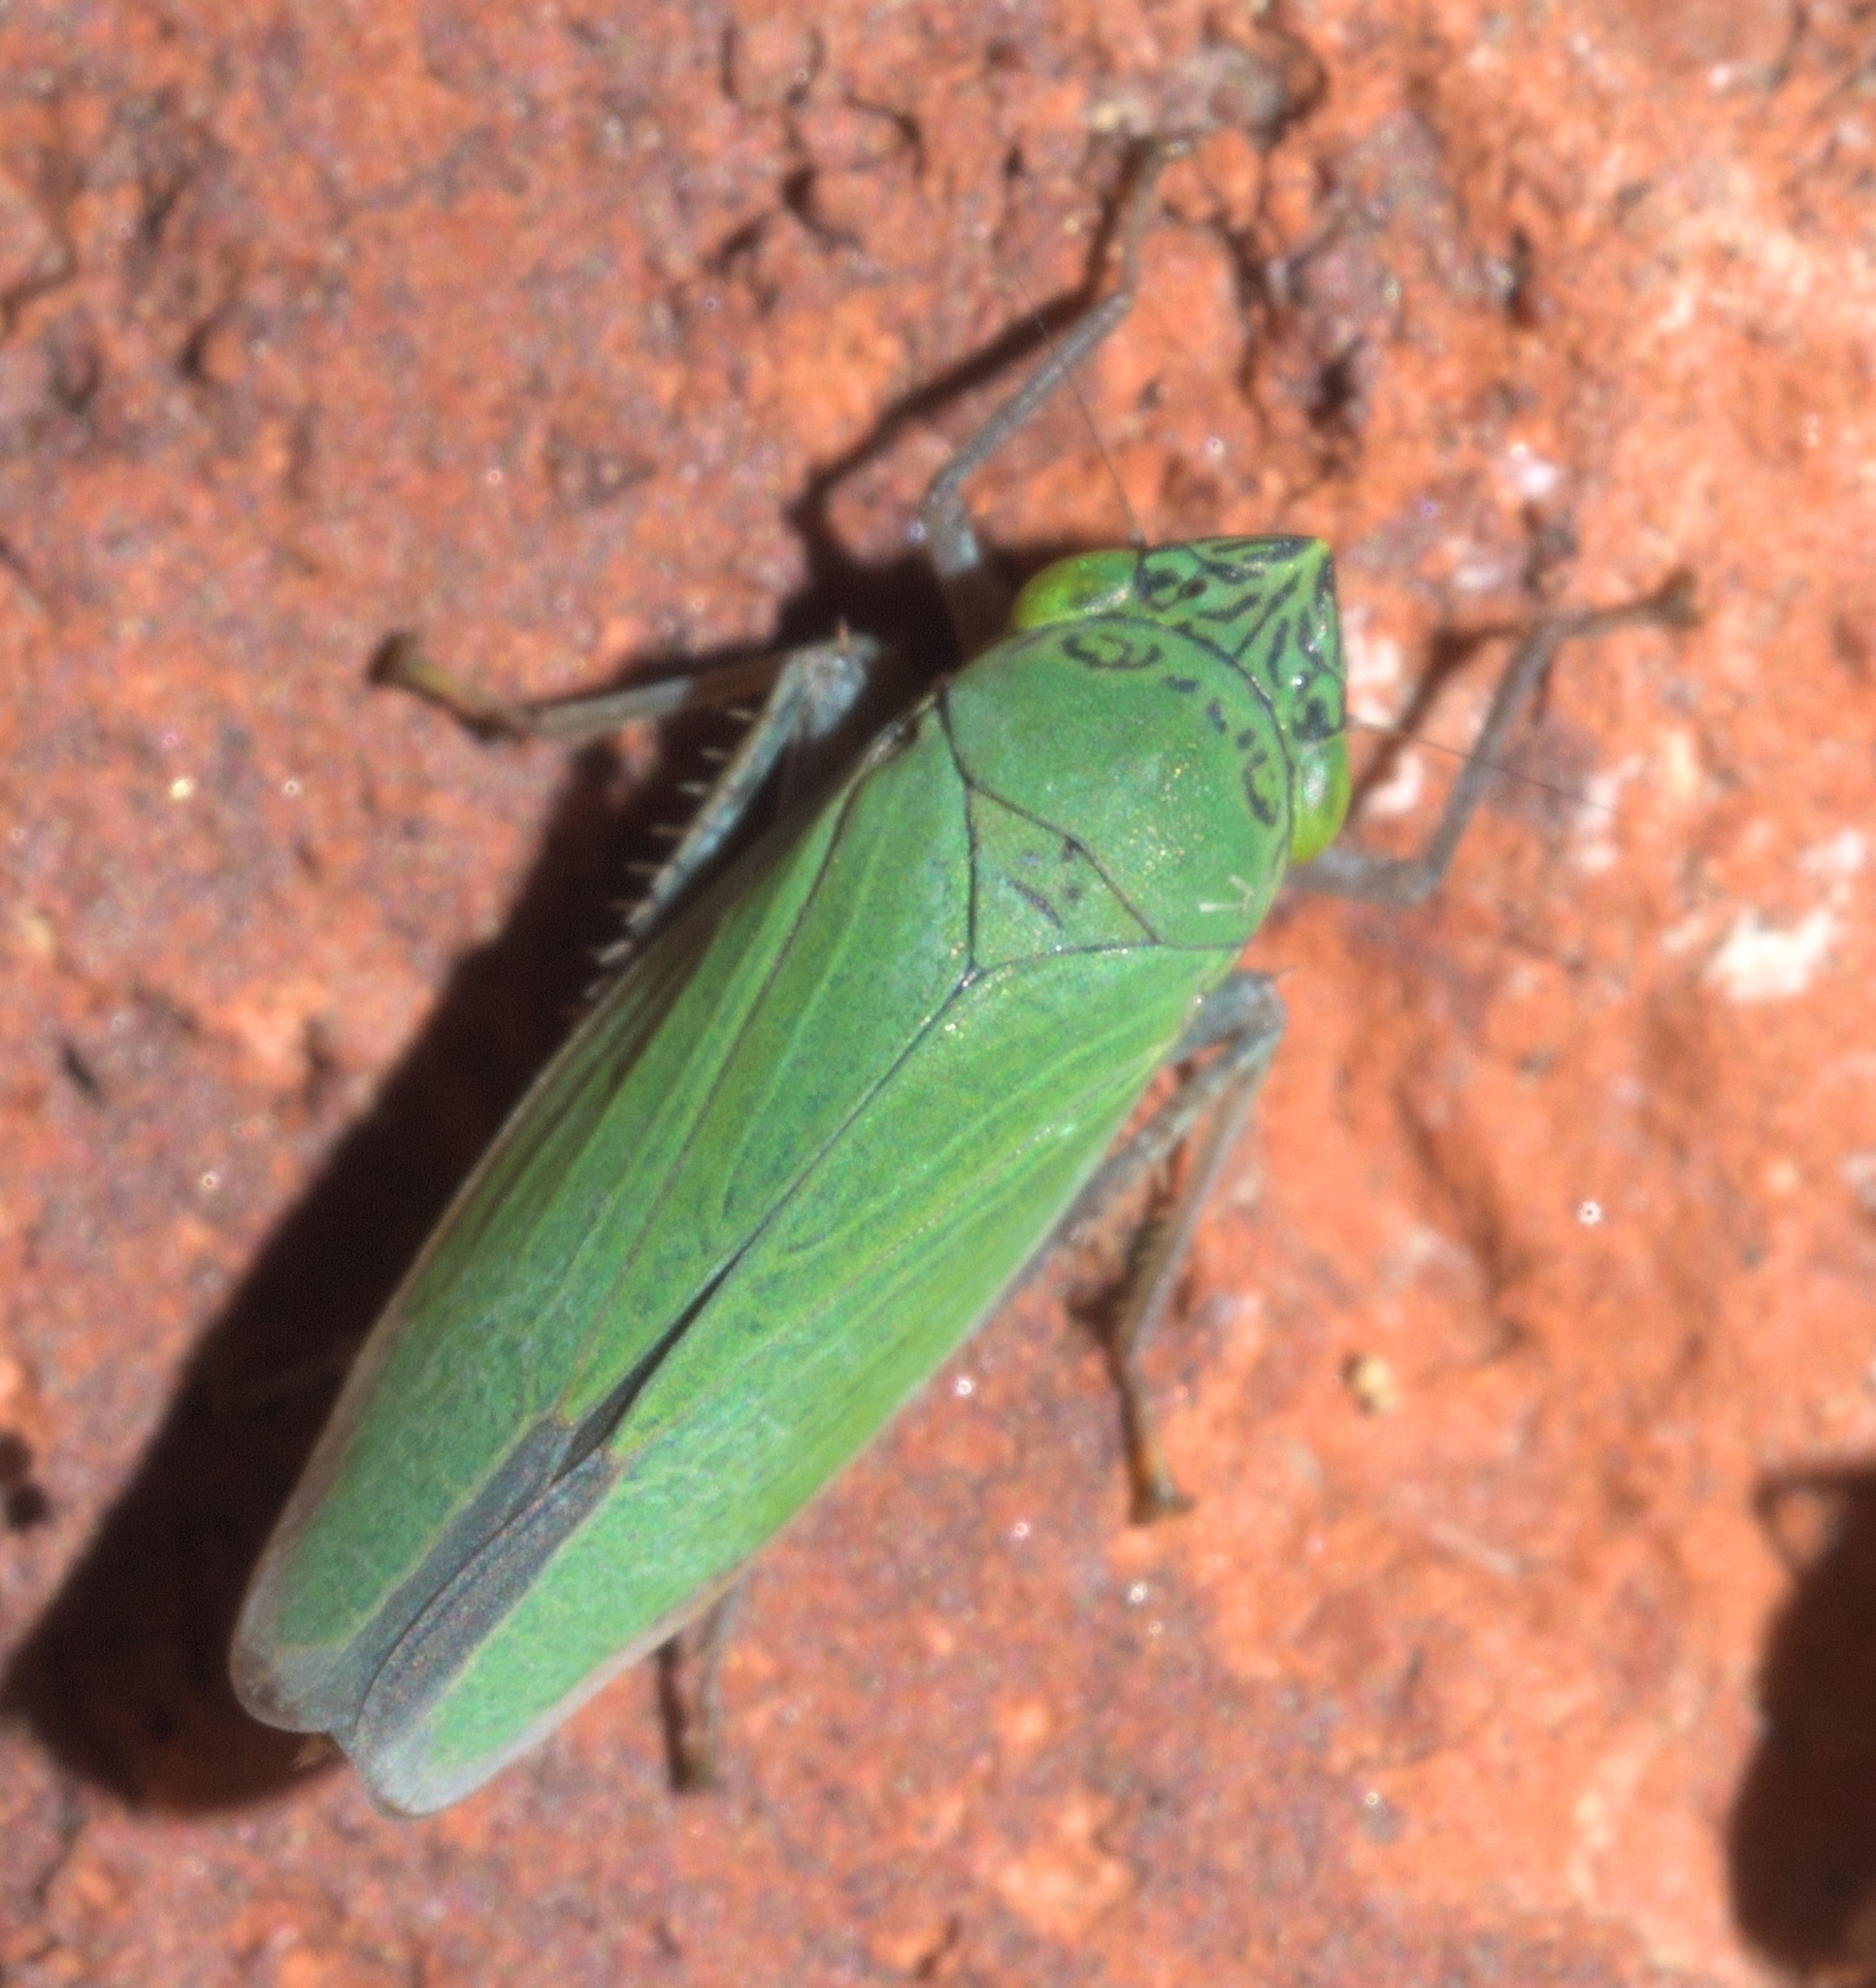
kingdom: Animalia
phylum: Arthropoda
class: Insecta
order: Hemiptera
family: Cicadellidae
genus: Draeculacephala
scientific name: Draeculacephala inscripta
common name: Leafhopper
